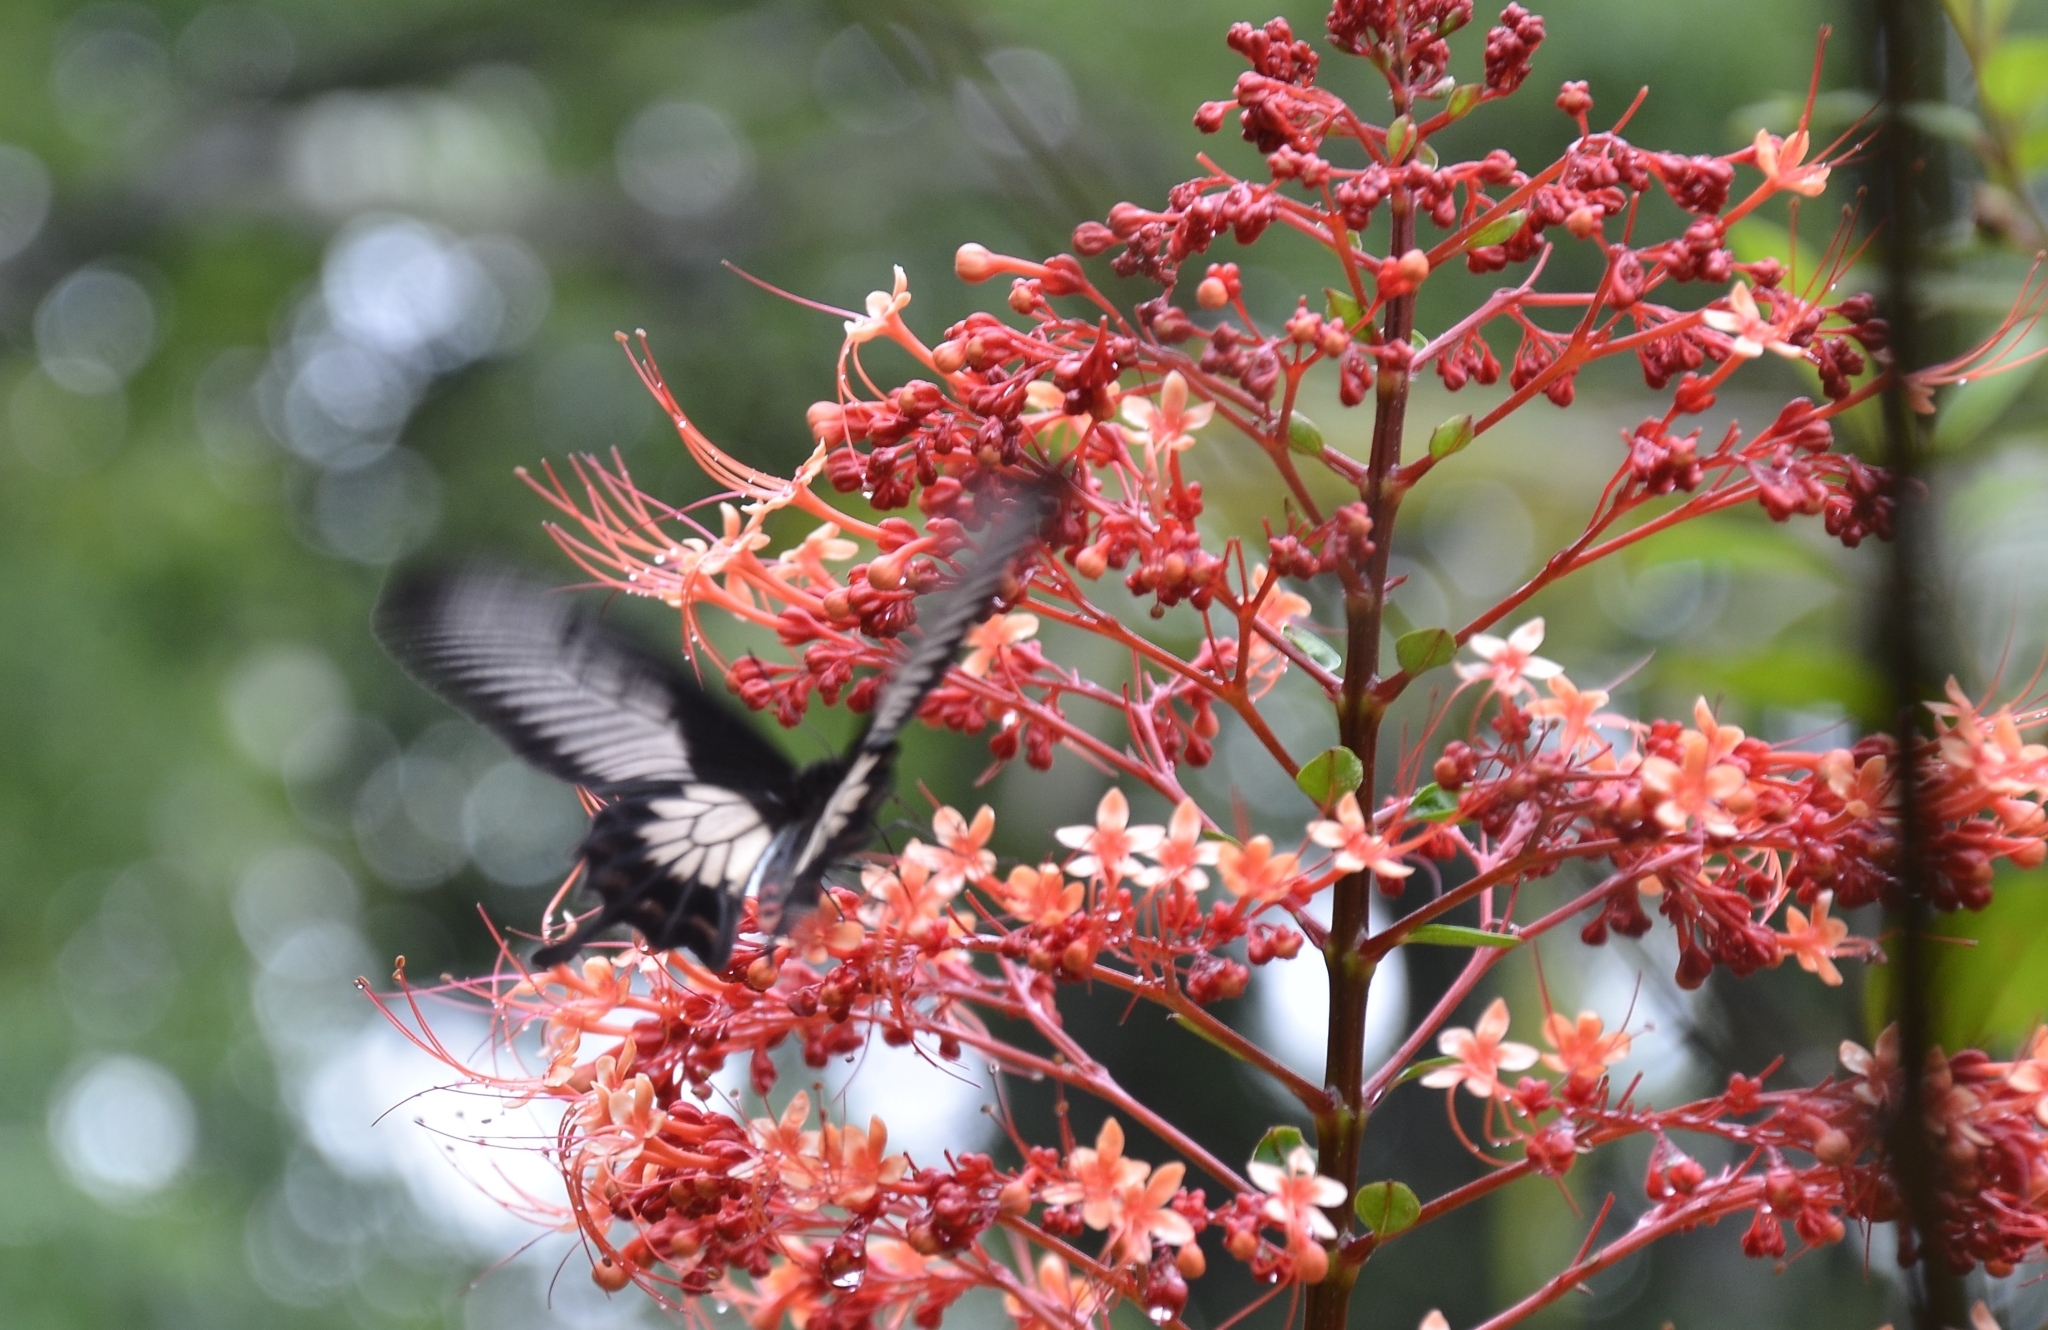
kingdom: Animalia
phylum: Arthropoda
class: Insecta
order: Lepidoptera
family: Papilionidae
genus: Pachliopta
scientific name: Pachliopta pandiyana
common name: Malabar rose
